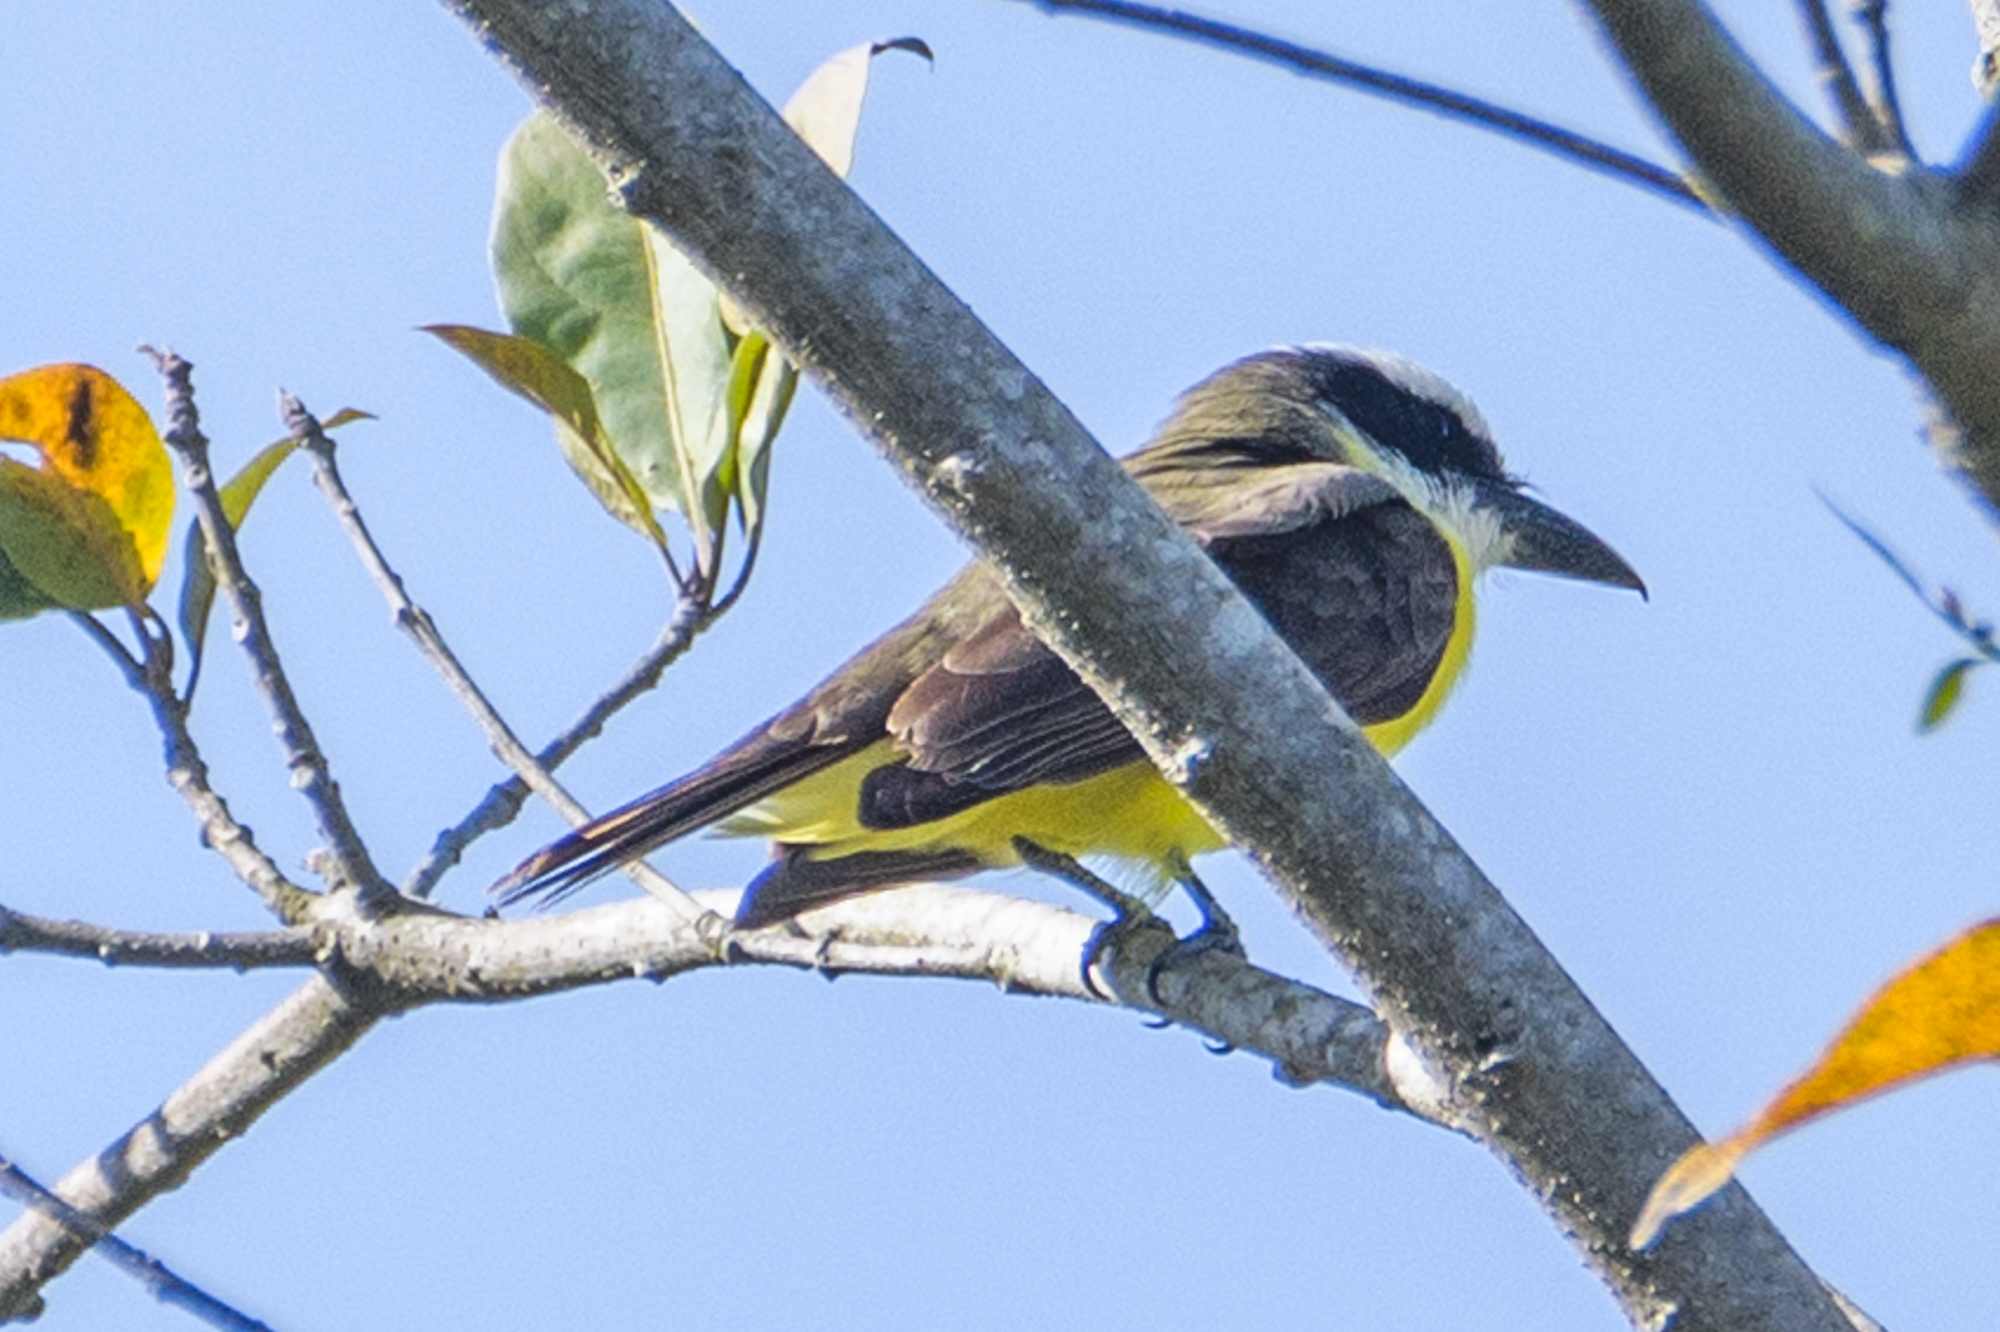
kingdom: Animalia
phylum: Chordata
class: Aves
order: Passeriformes
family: Tyrannidae
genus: Megarynchus
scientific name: Megarynchus pitangua
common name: Boat-billed flycatcher
